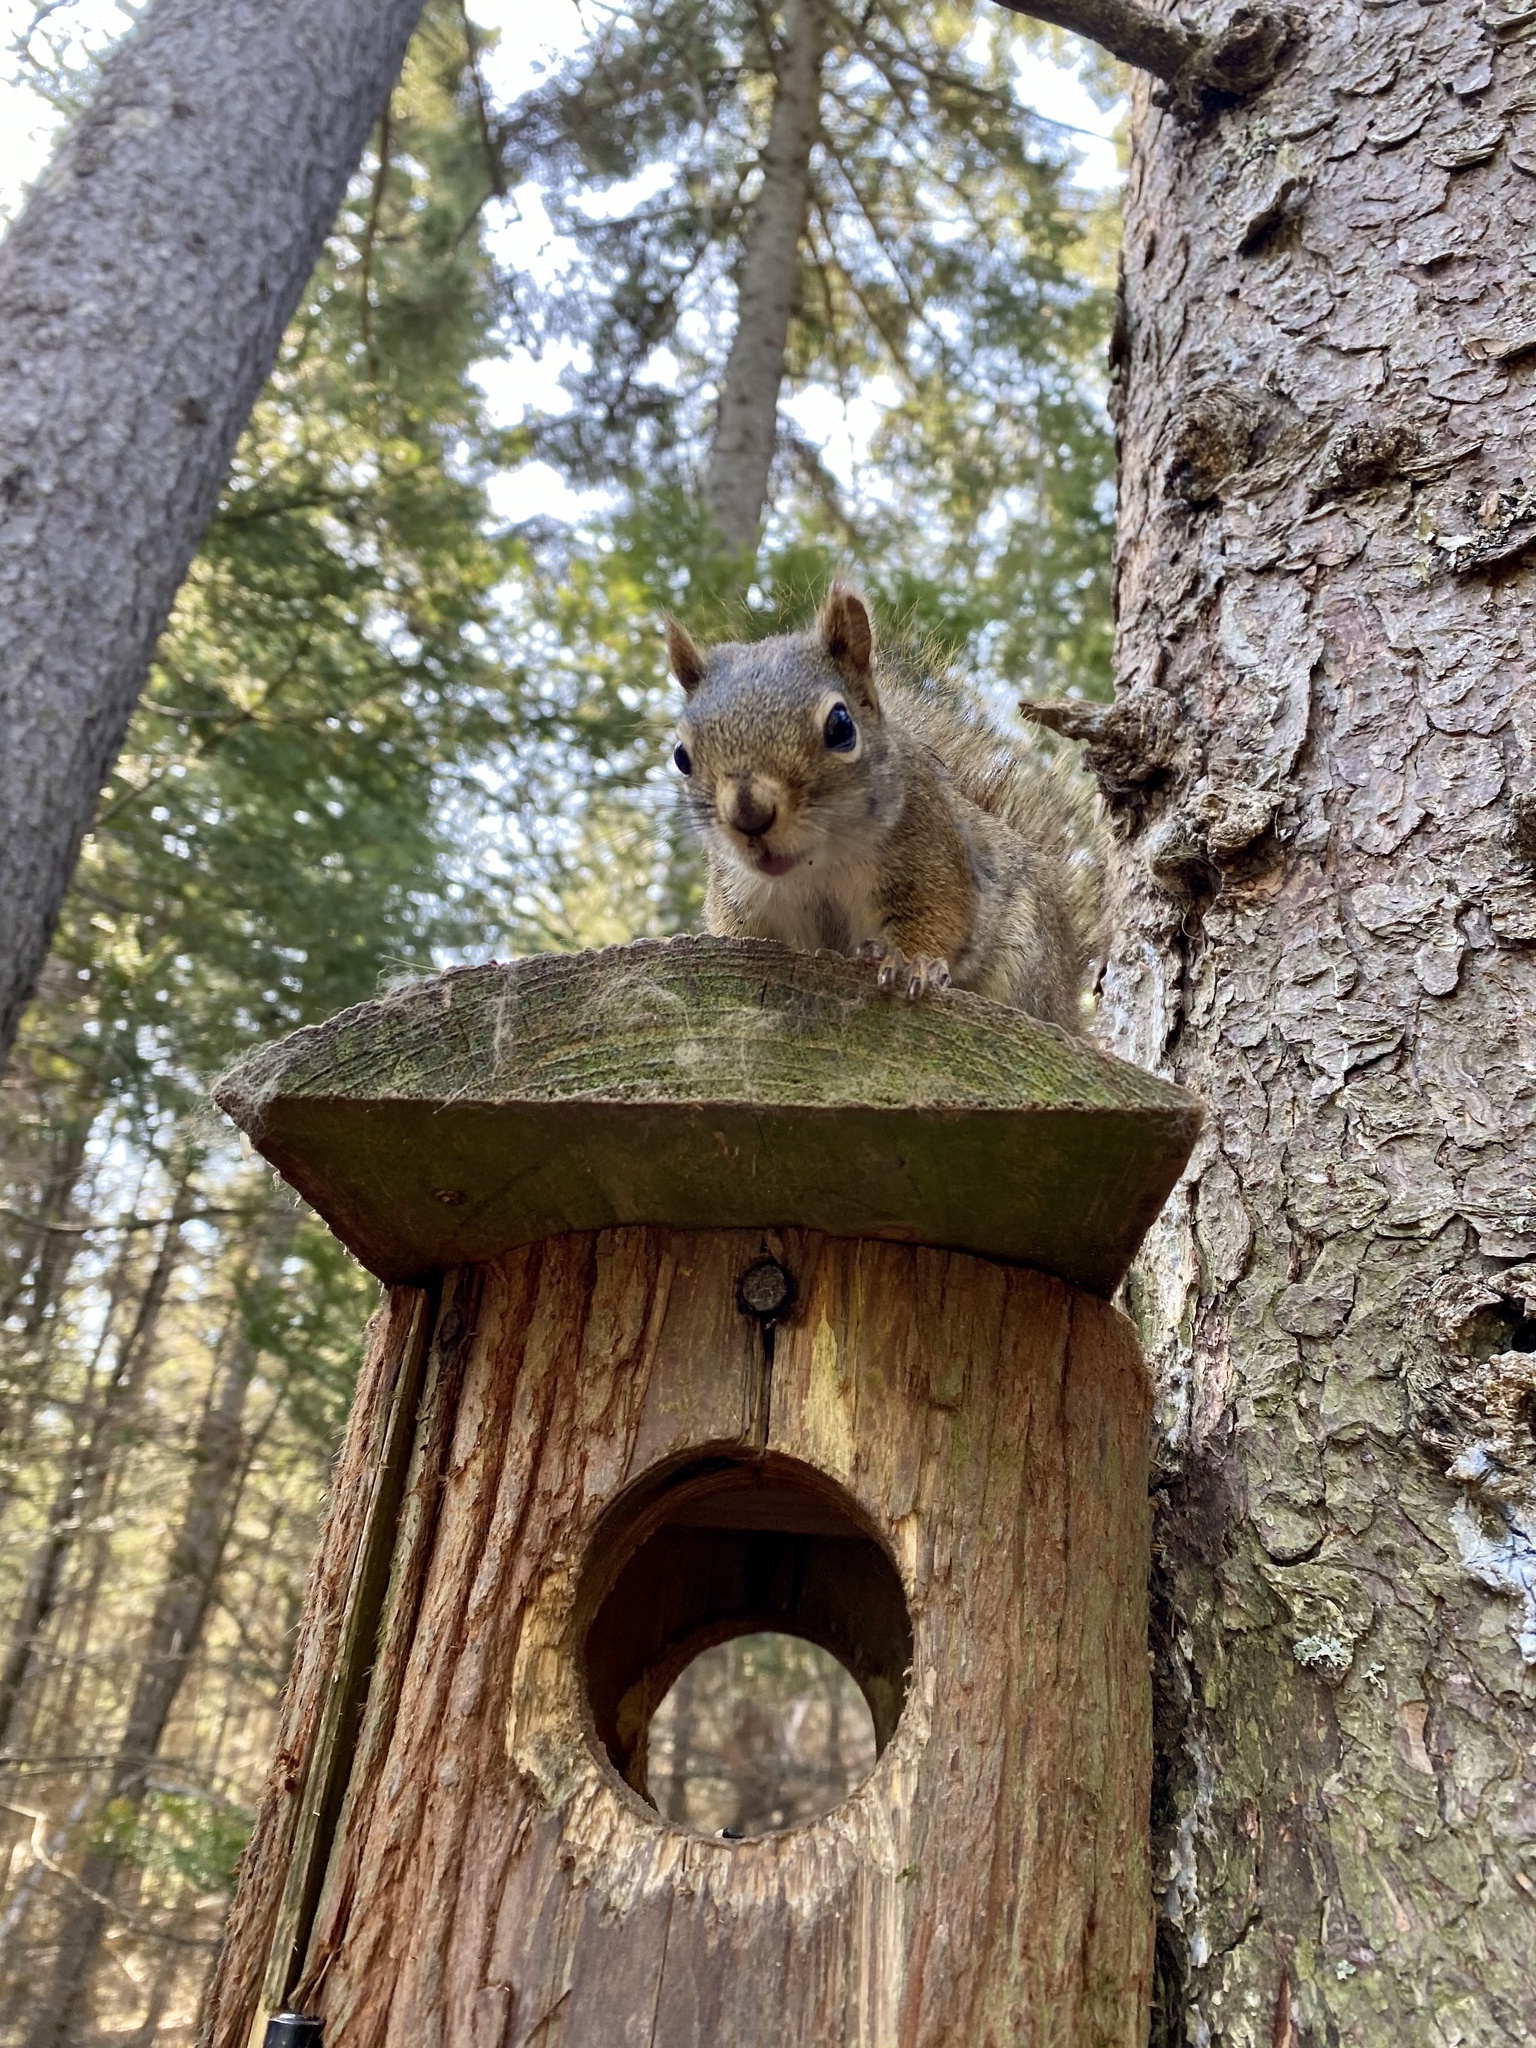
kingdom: Animalia
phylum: Chordata
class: Mammalia
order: Rodentia
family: Sciuridae
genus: Tamiasciurus
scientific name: Tamiasciurus hudsonicus
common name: Red squirrel
